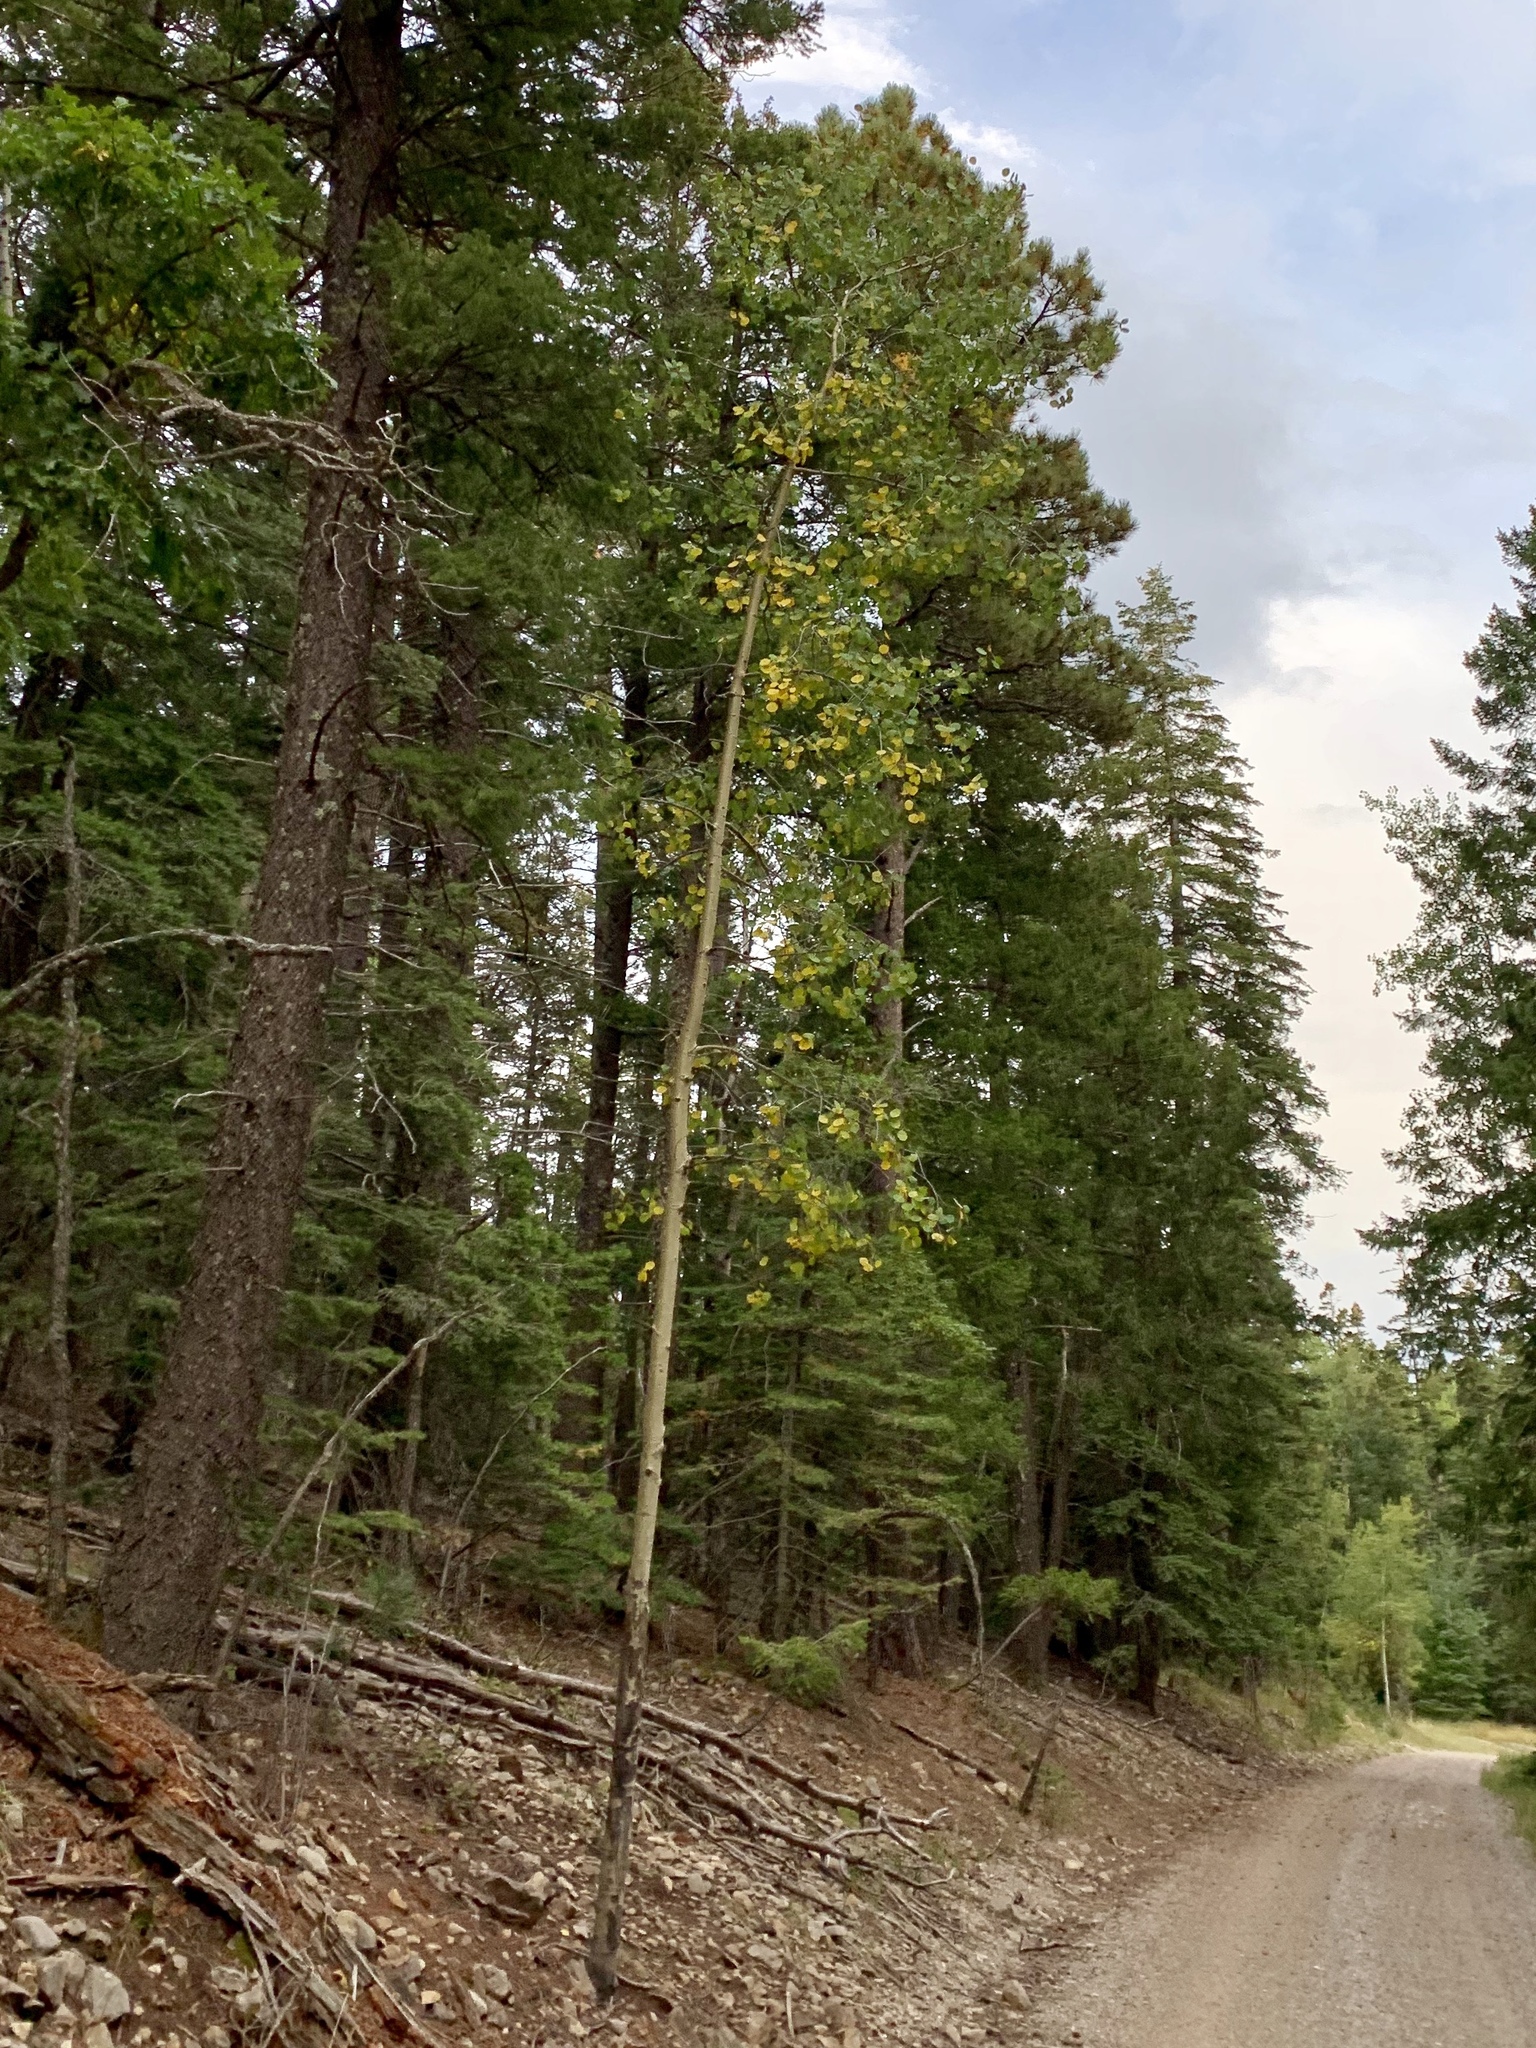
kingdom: Plantae
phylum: Tracheophyta
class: Magnoliopsida
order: Malpighiales
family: Salicaceae
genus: Populus
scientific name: Populus tremuloides
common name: Quaking aspen
